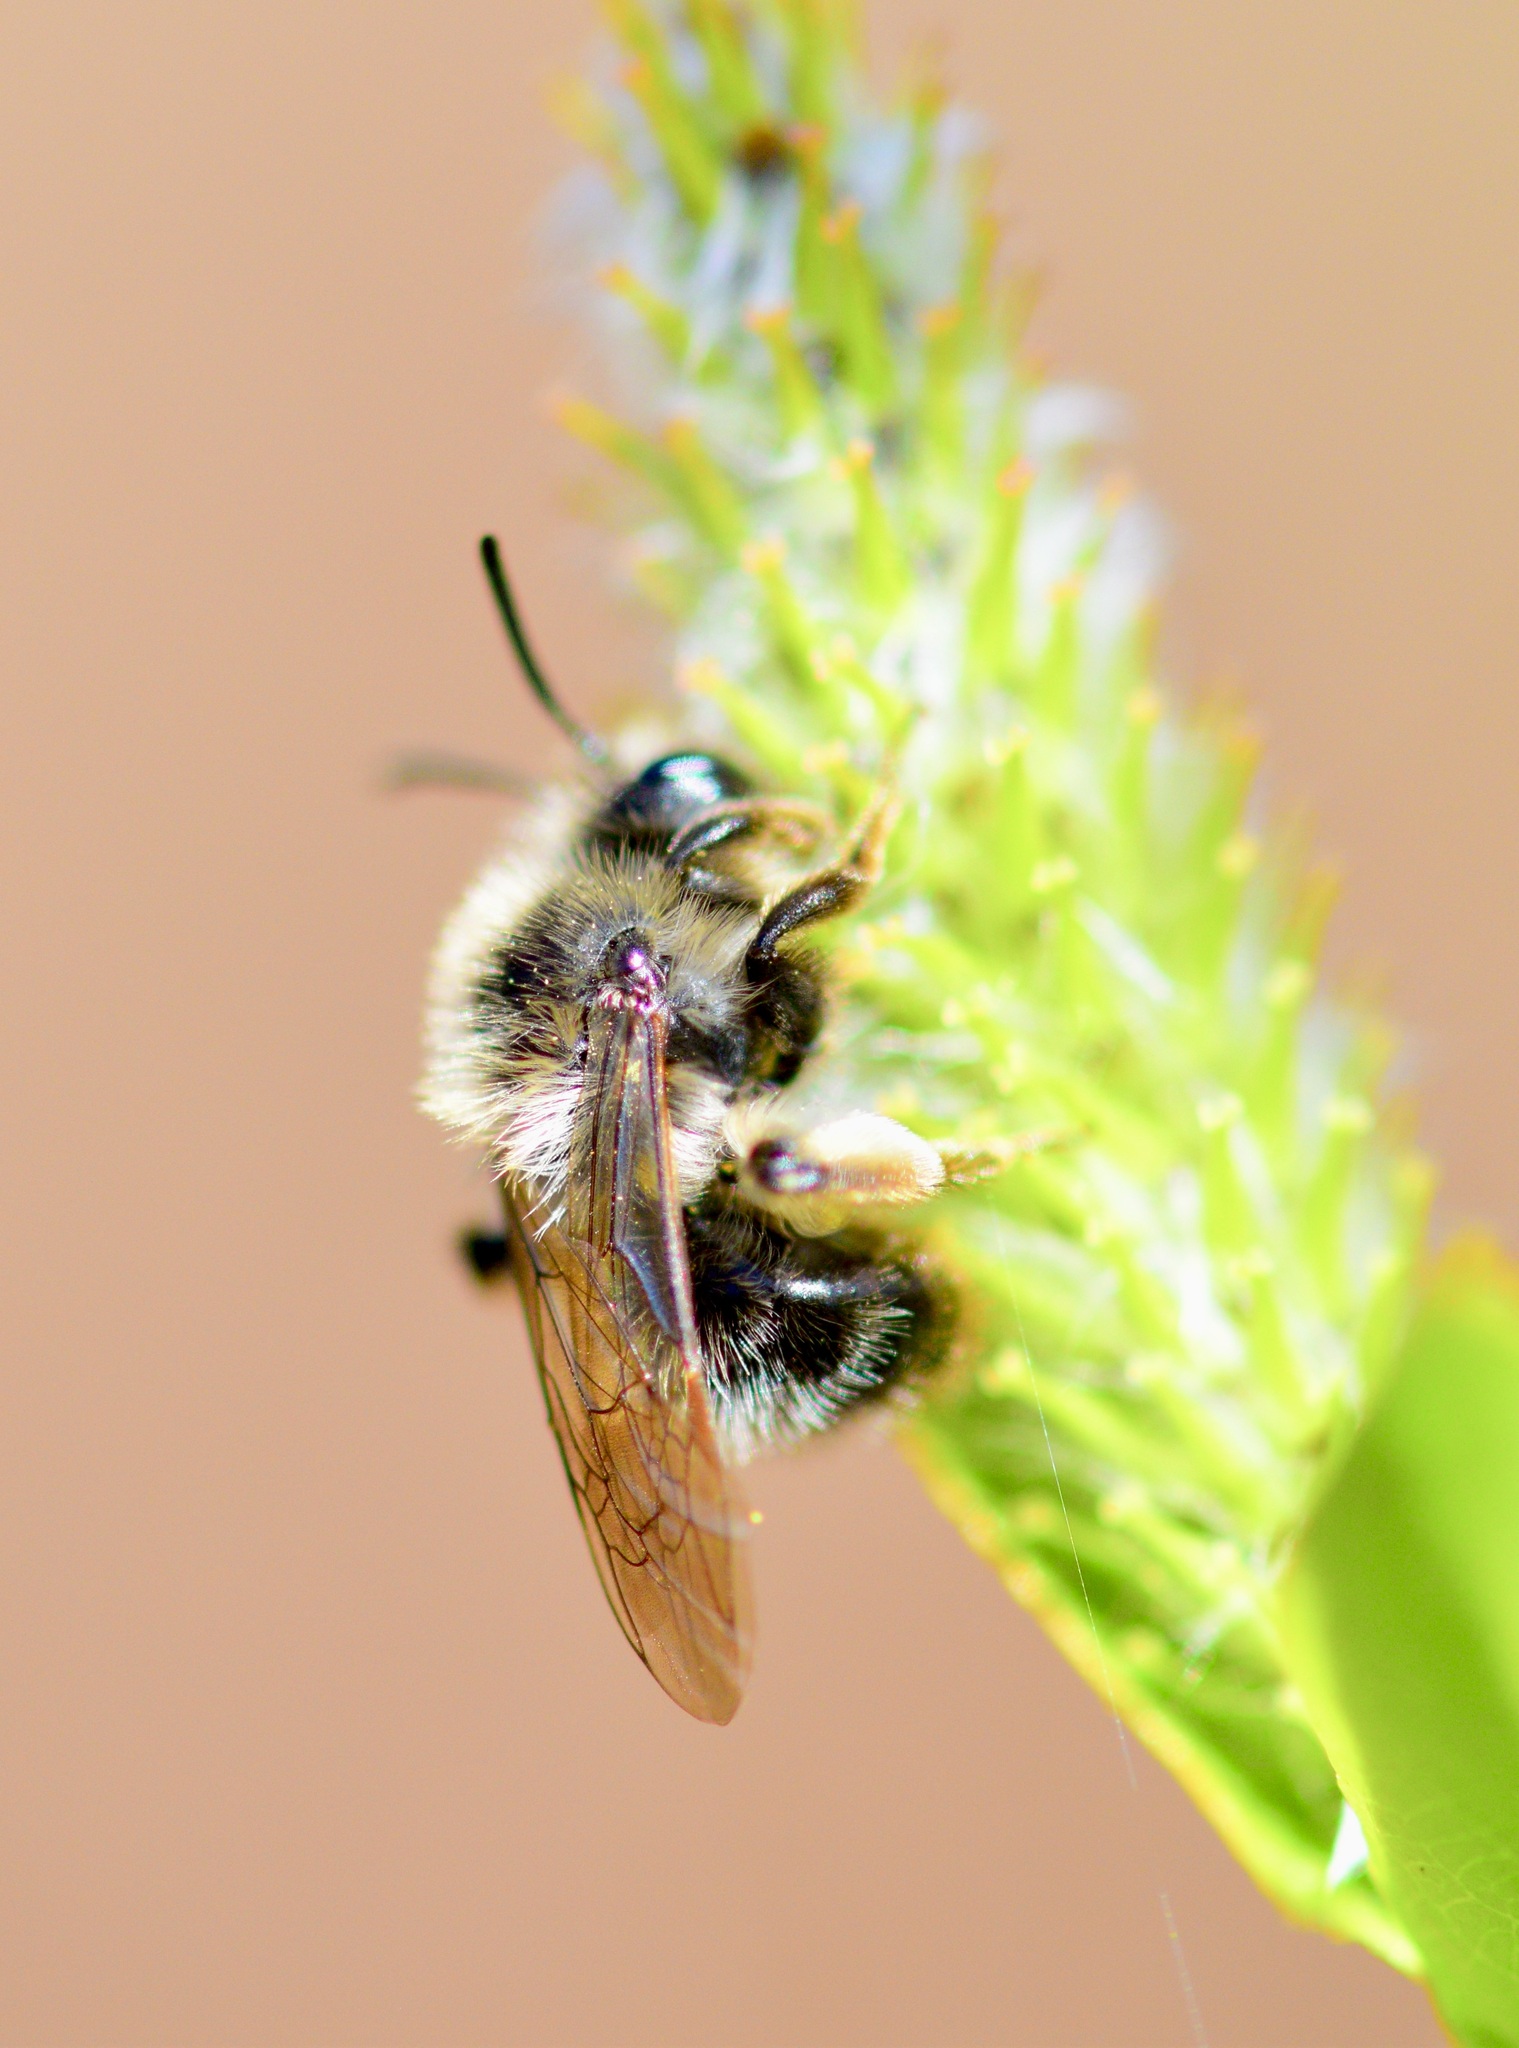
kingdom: Animalia
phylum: Arthropoda
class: Insecta
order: Hymenoptera
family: Andrenidae
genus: Andrena
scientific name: Andrena frigida
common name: Frigid mining bee
